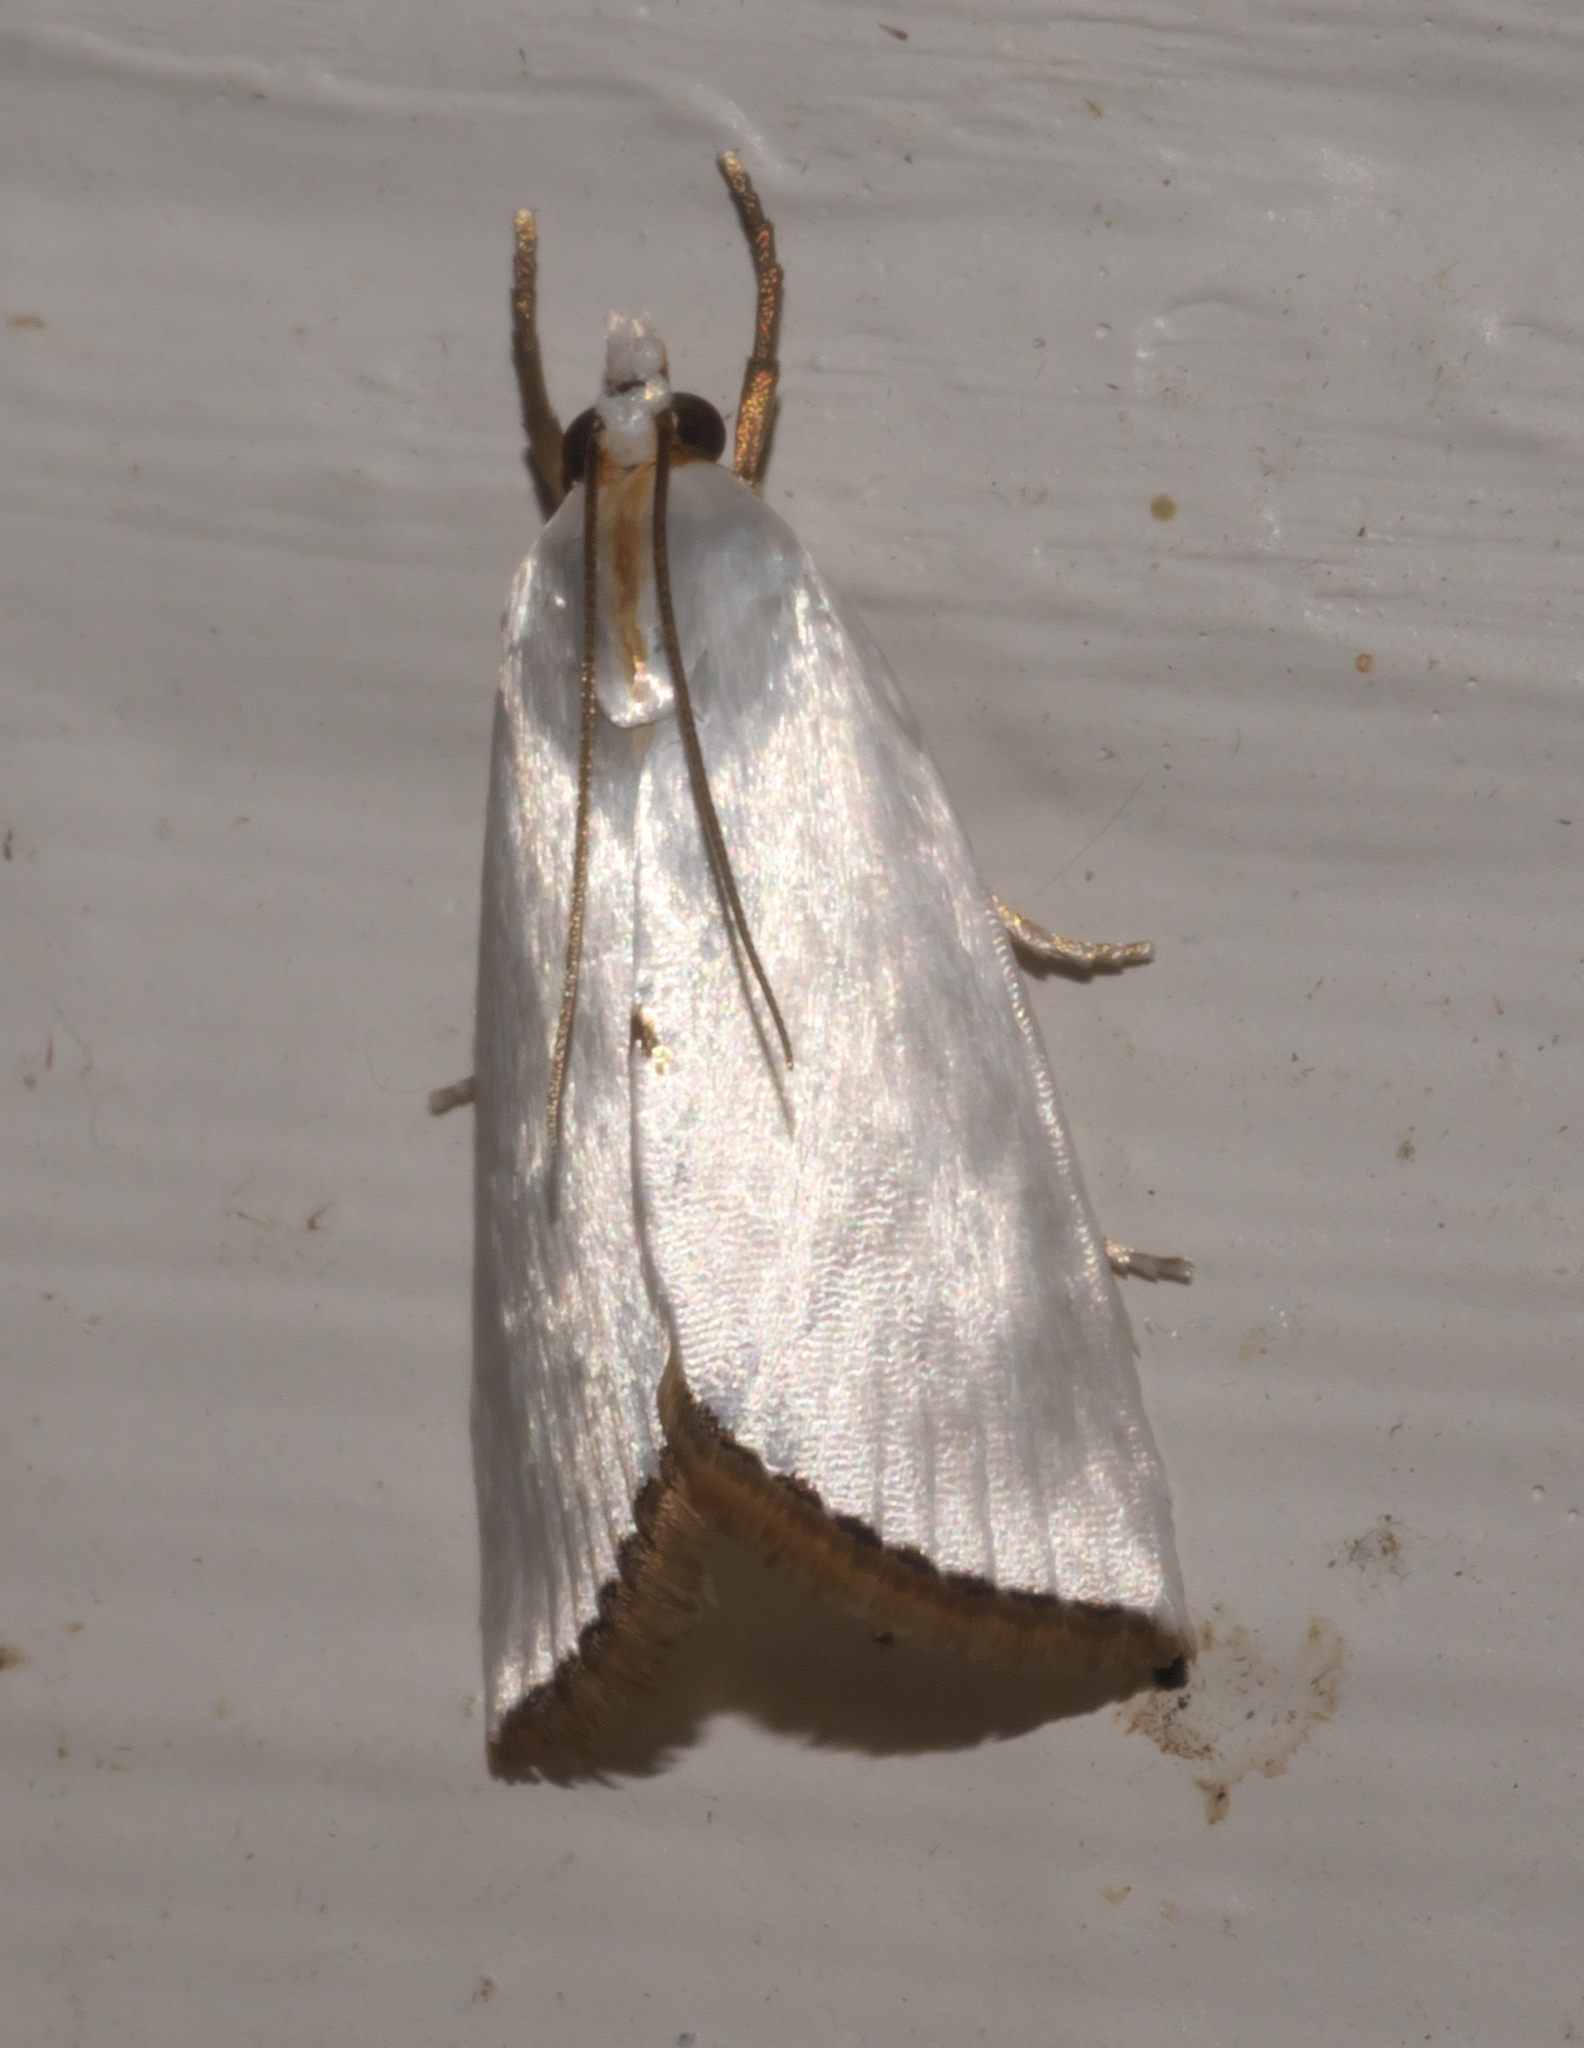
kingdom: Animalia
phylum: Arthropoda
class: Insecta
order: Lepidoptera
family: Crambidae
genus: Argyria
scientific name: Argyria nivalis
